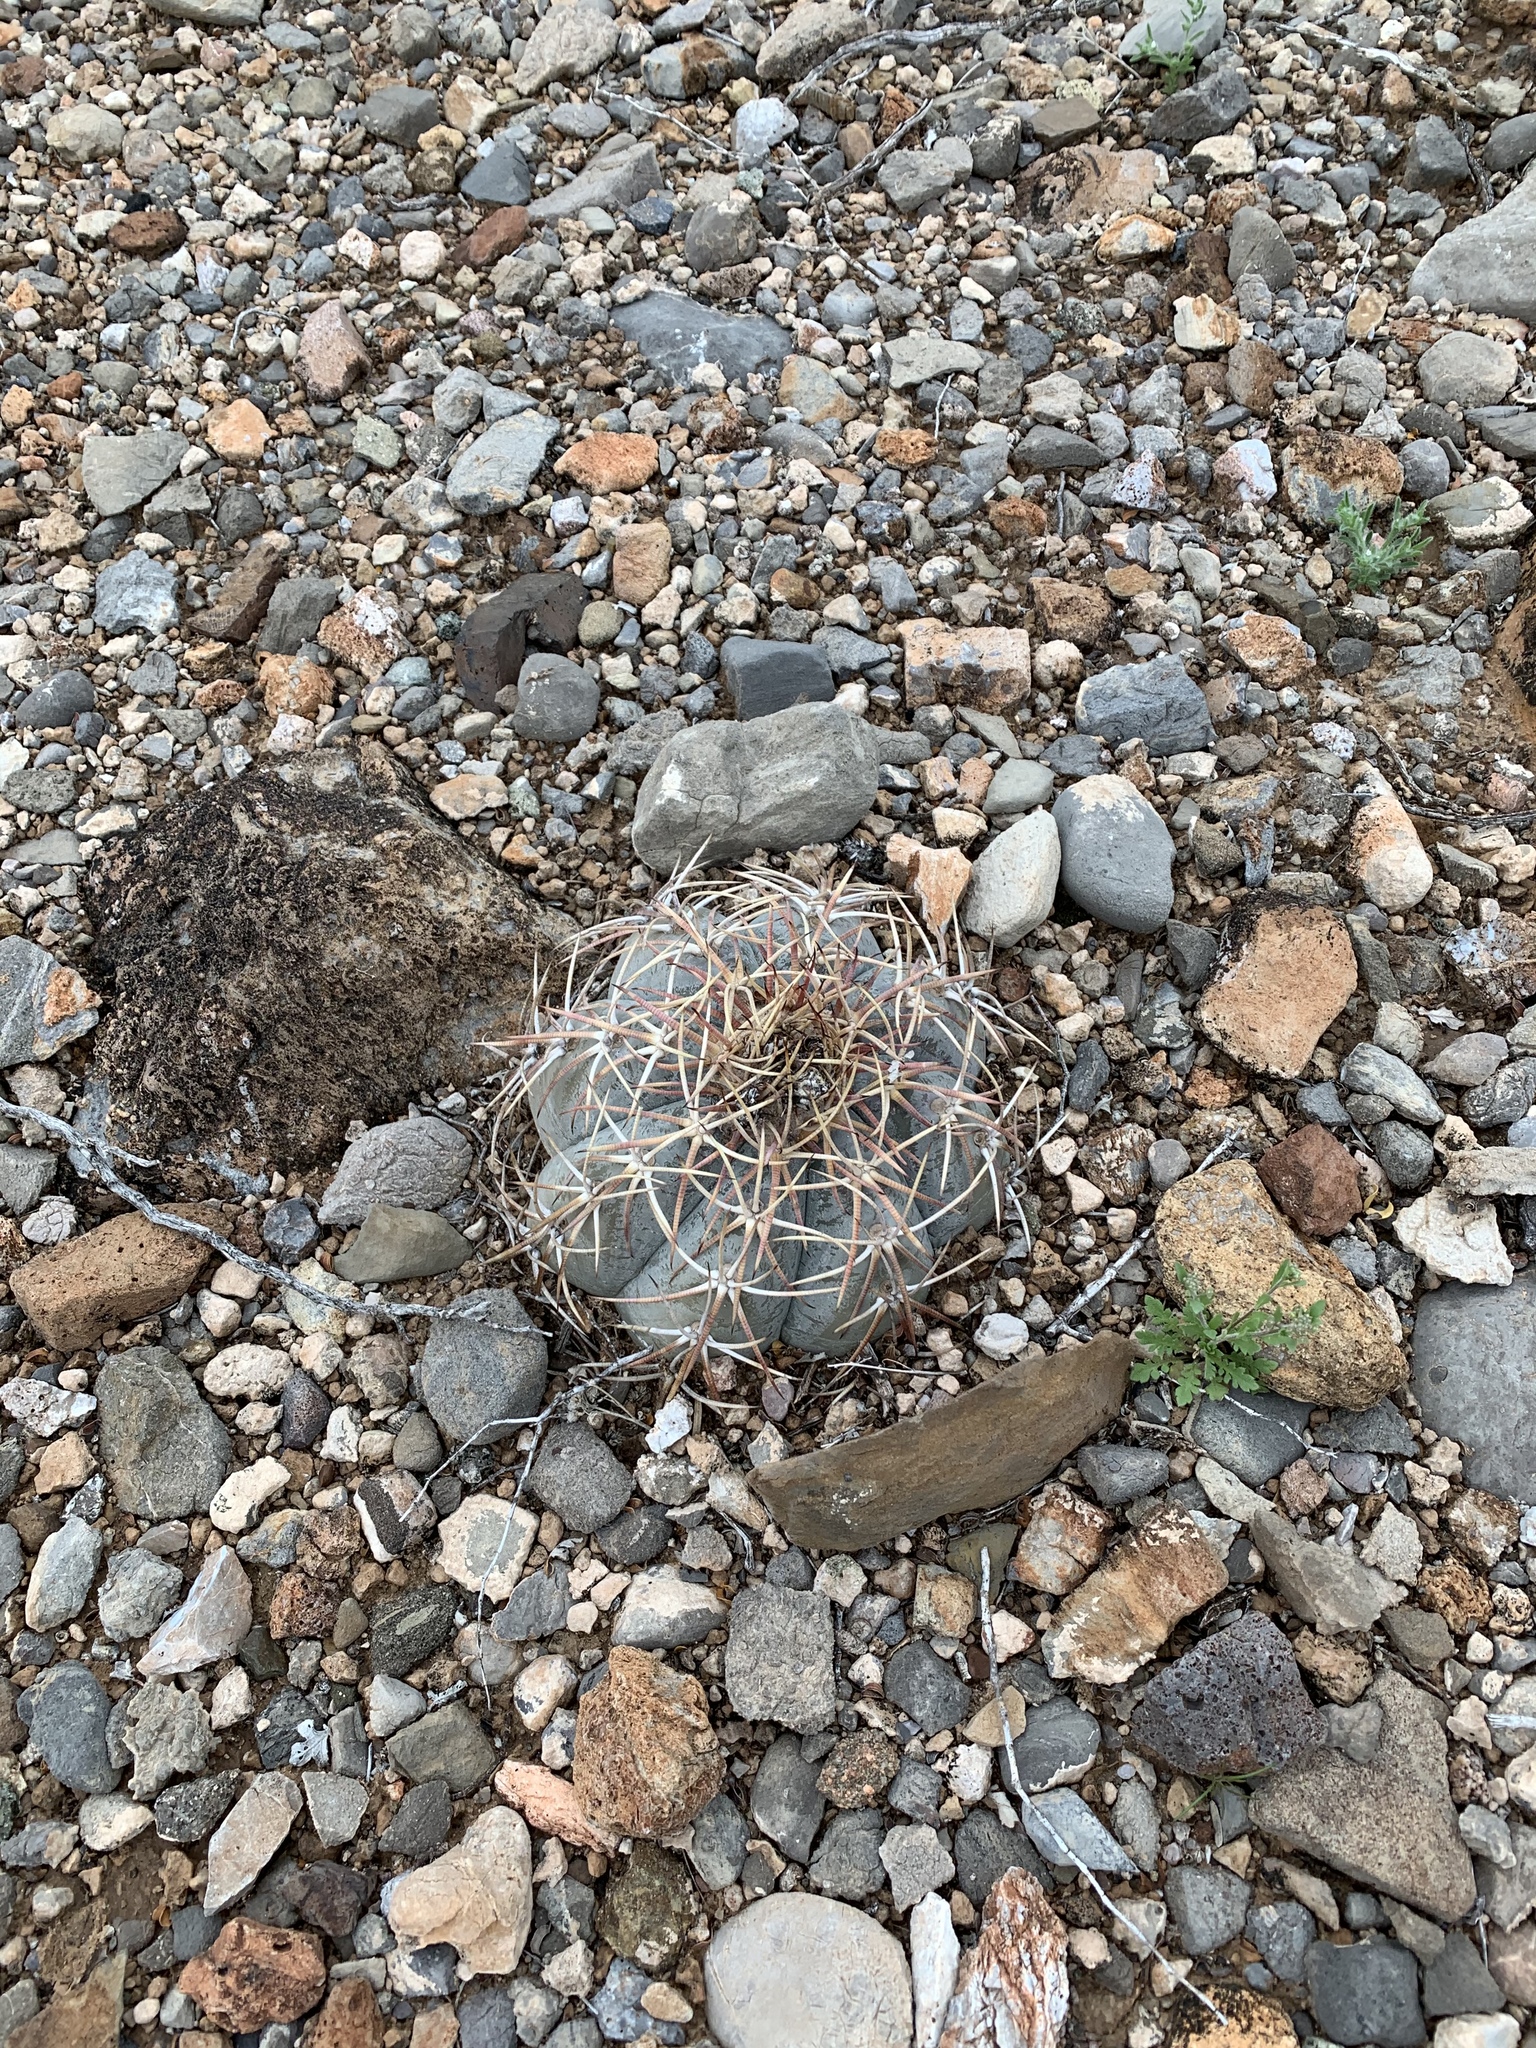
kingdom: Plantae
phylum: Tracheophyta
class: Magnoliopsida
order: Caryophyllales
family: Cactaceae
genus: Echinocactus
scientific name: Echinocactus horizonthalonius
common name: Devilshead
